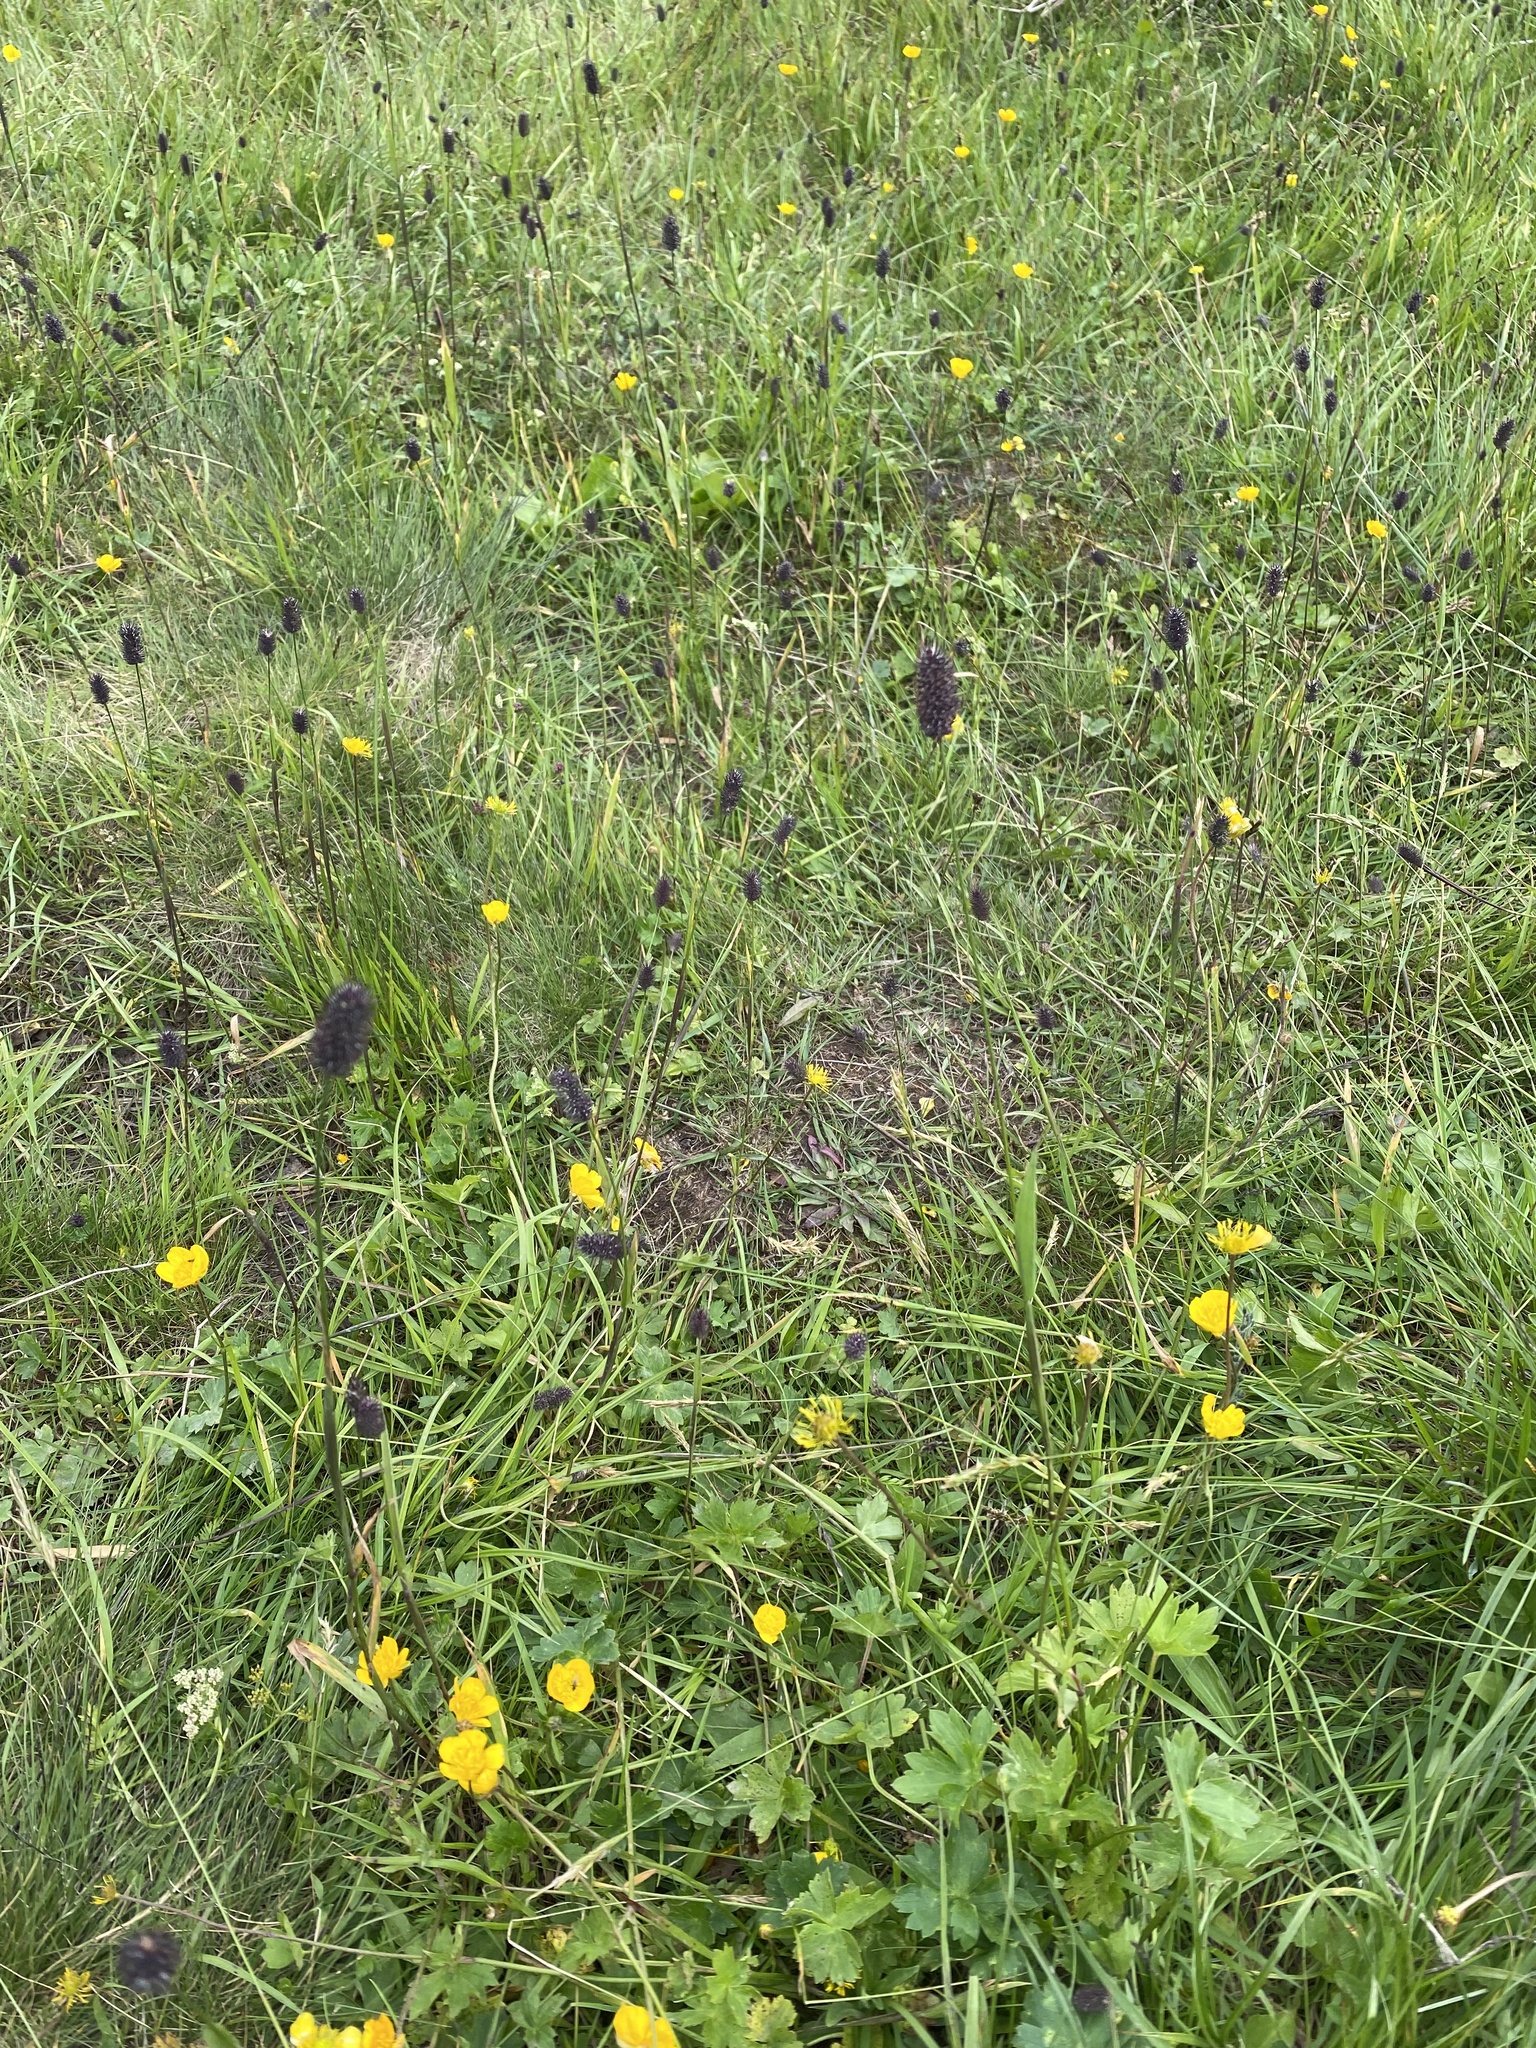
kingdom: Plantae
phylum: Tracheophyta
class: Liliopsida
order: Poales
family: Poaceae
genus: Phleum
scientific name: Phleum alpinum
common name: Alpine cat's-tail
